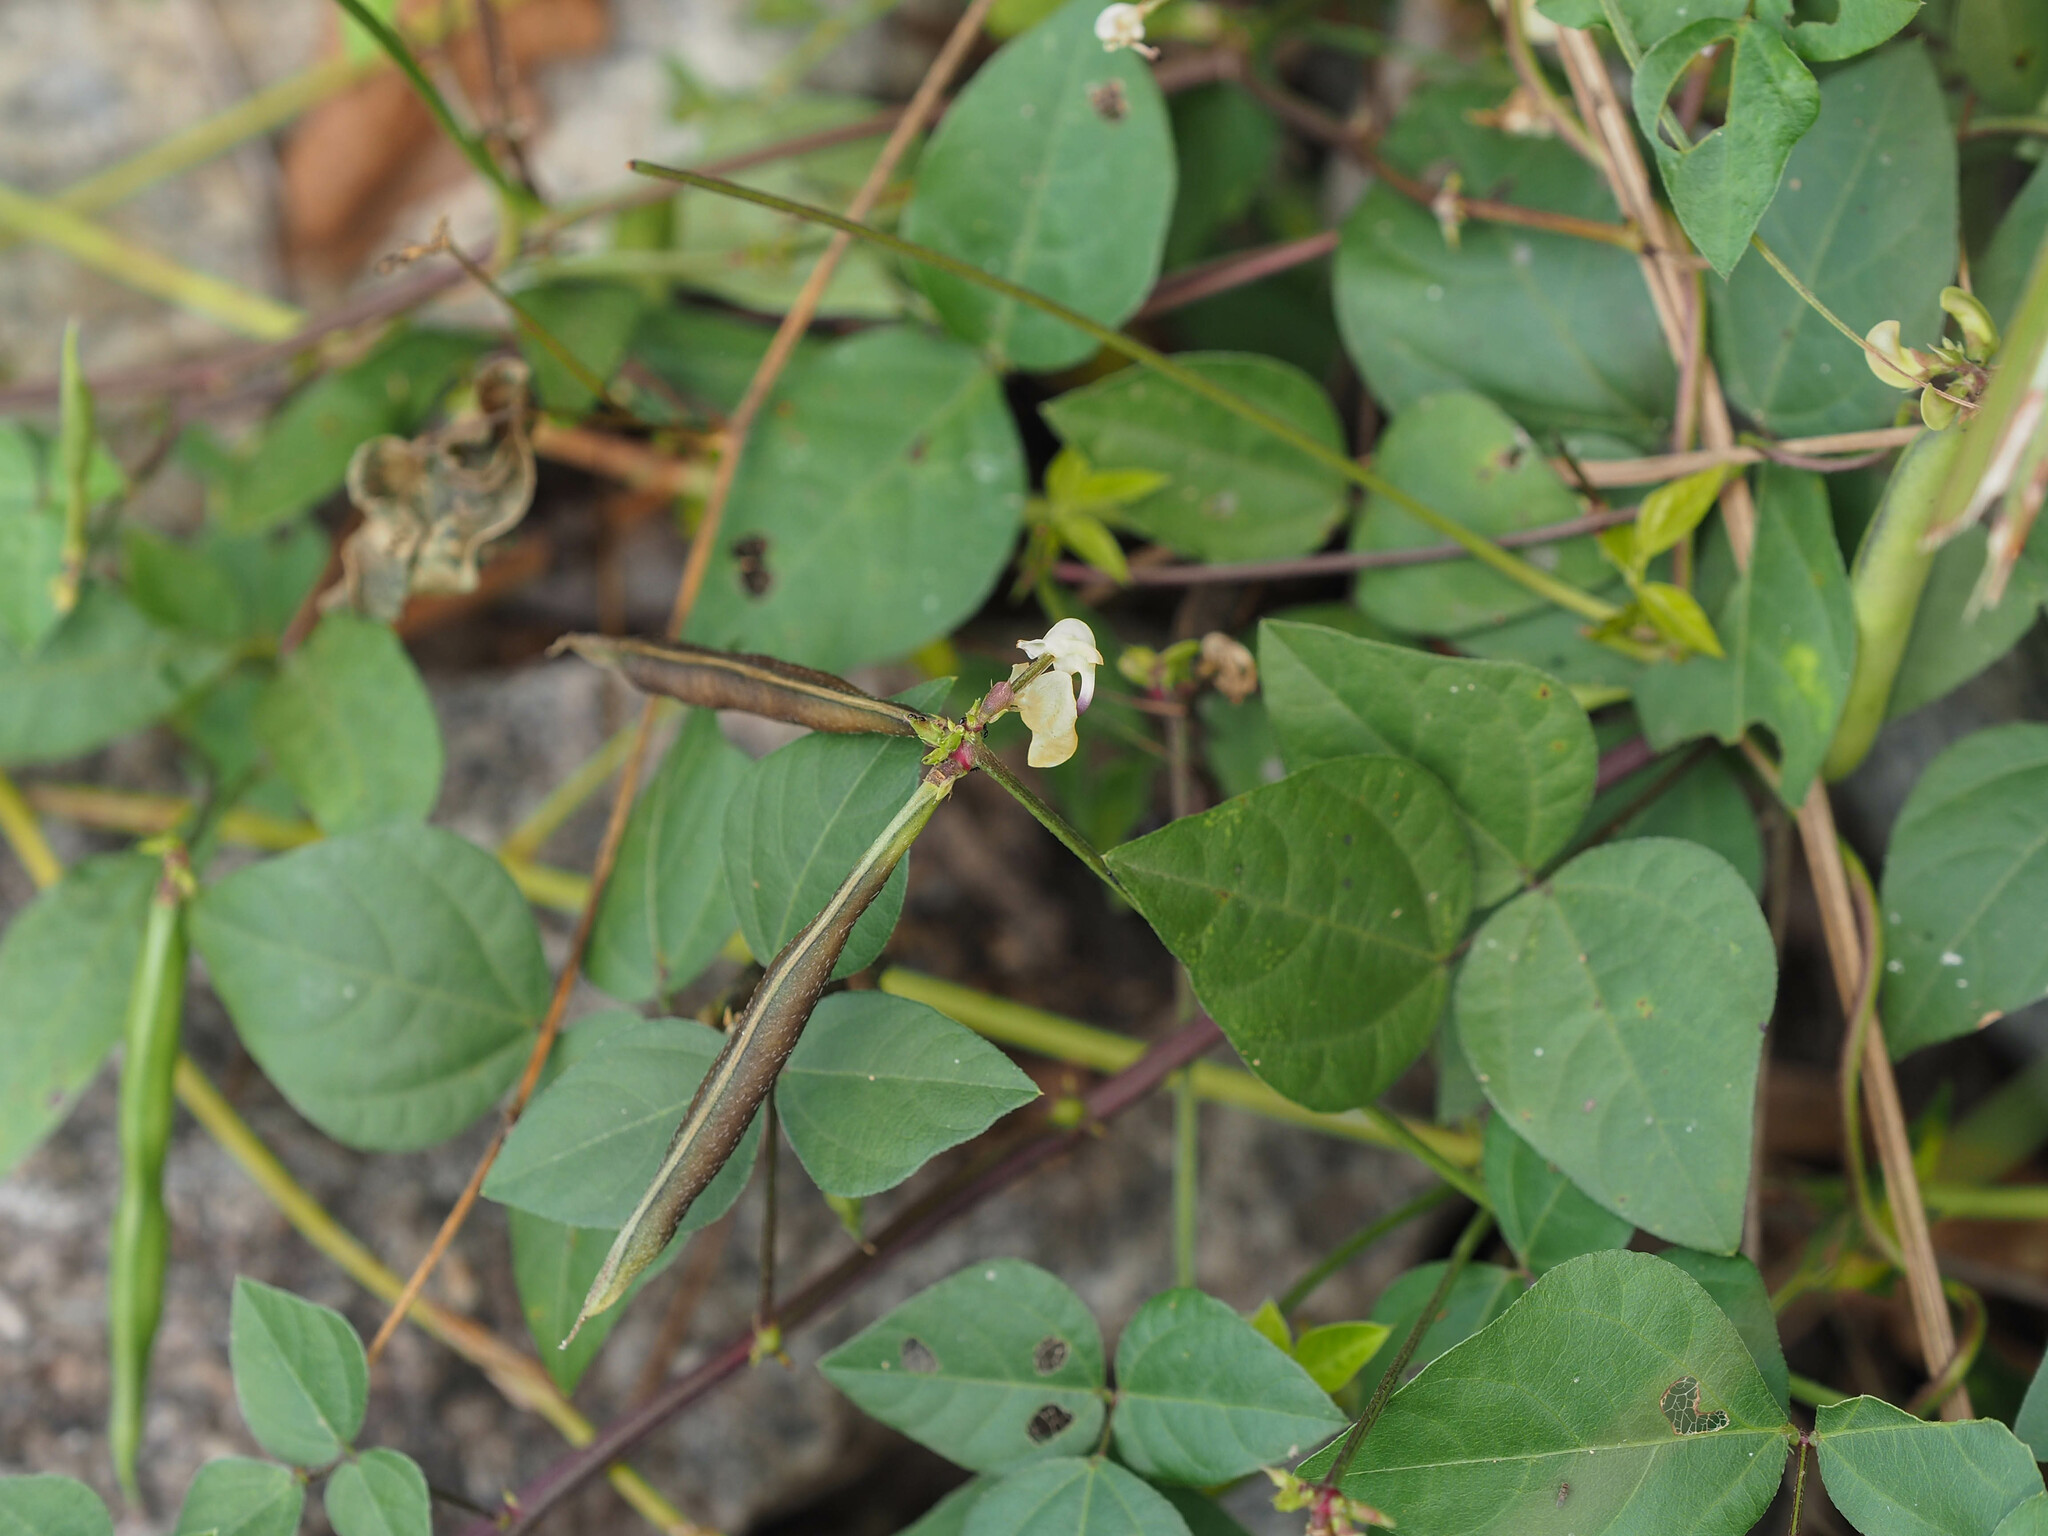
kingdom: Plantae
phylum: Tracheophyta
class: Magnoliopsida
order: Fabales
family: Fabaceae
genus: Strophostyles
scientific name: Strophostyles helvola
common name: Trailing wild bean
